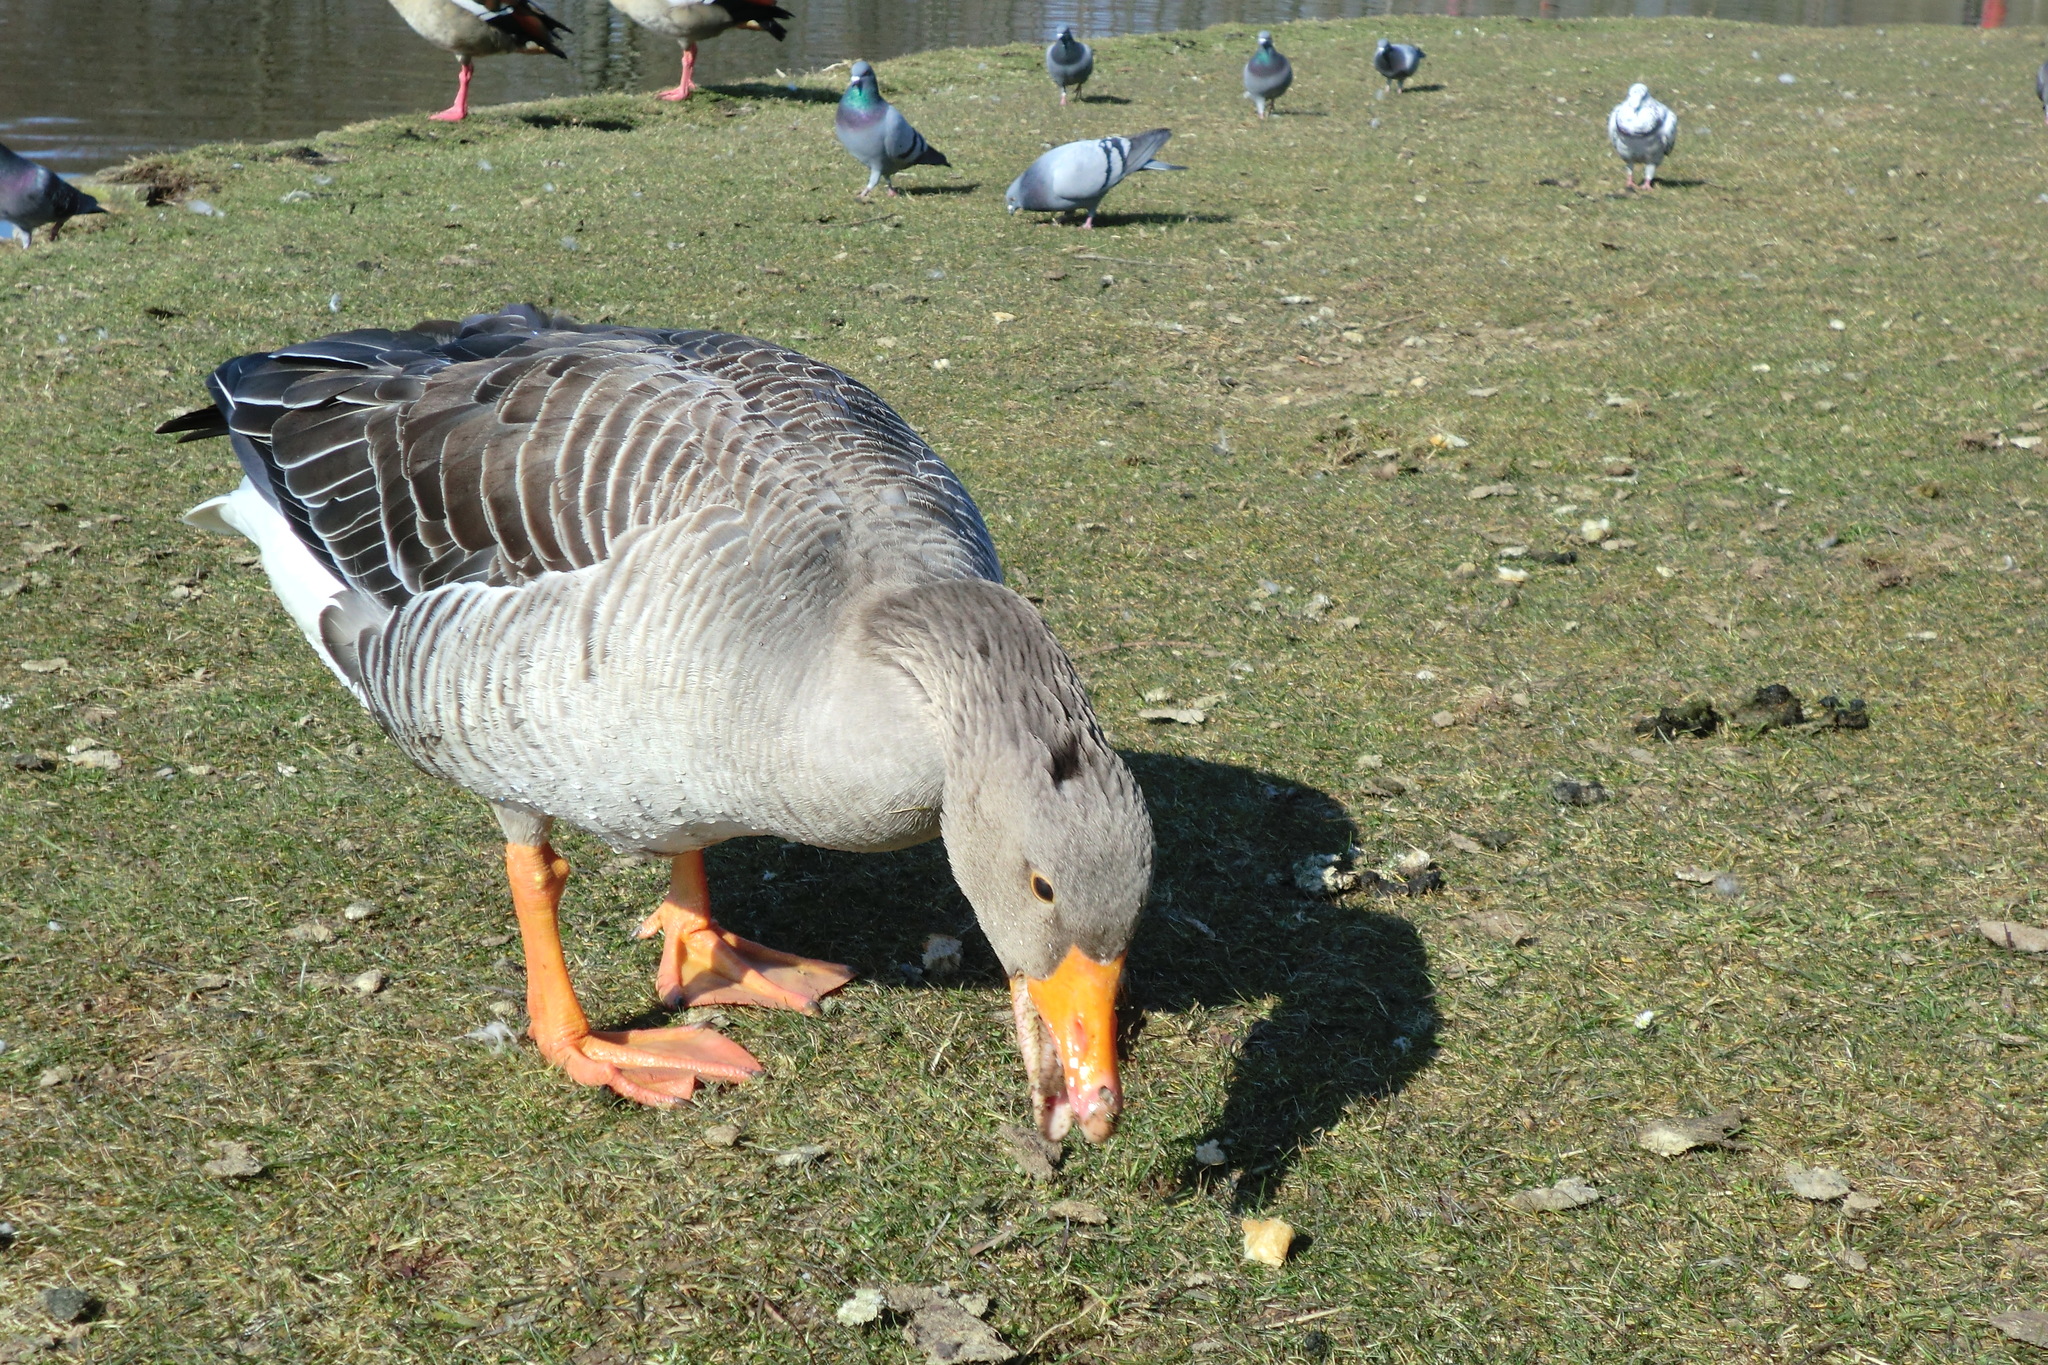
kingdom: Animalia
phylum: Chordata
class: Aves
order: Anseriformes
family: Anatidae
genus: Anser
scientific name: Anser anser
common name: Greylag goose
